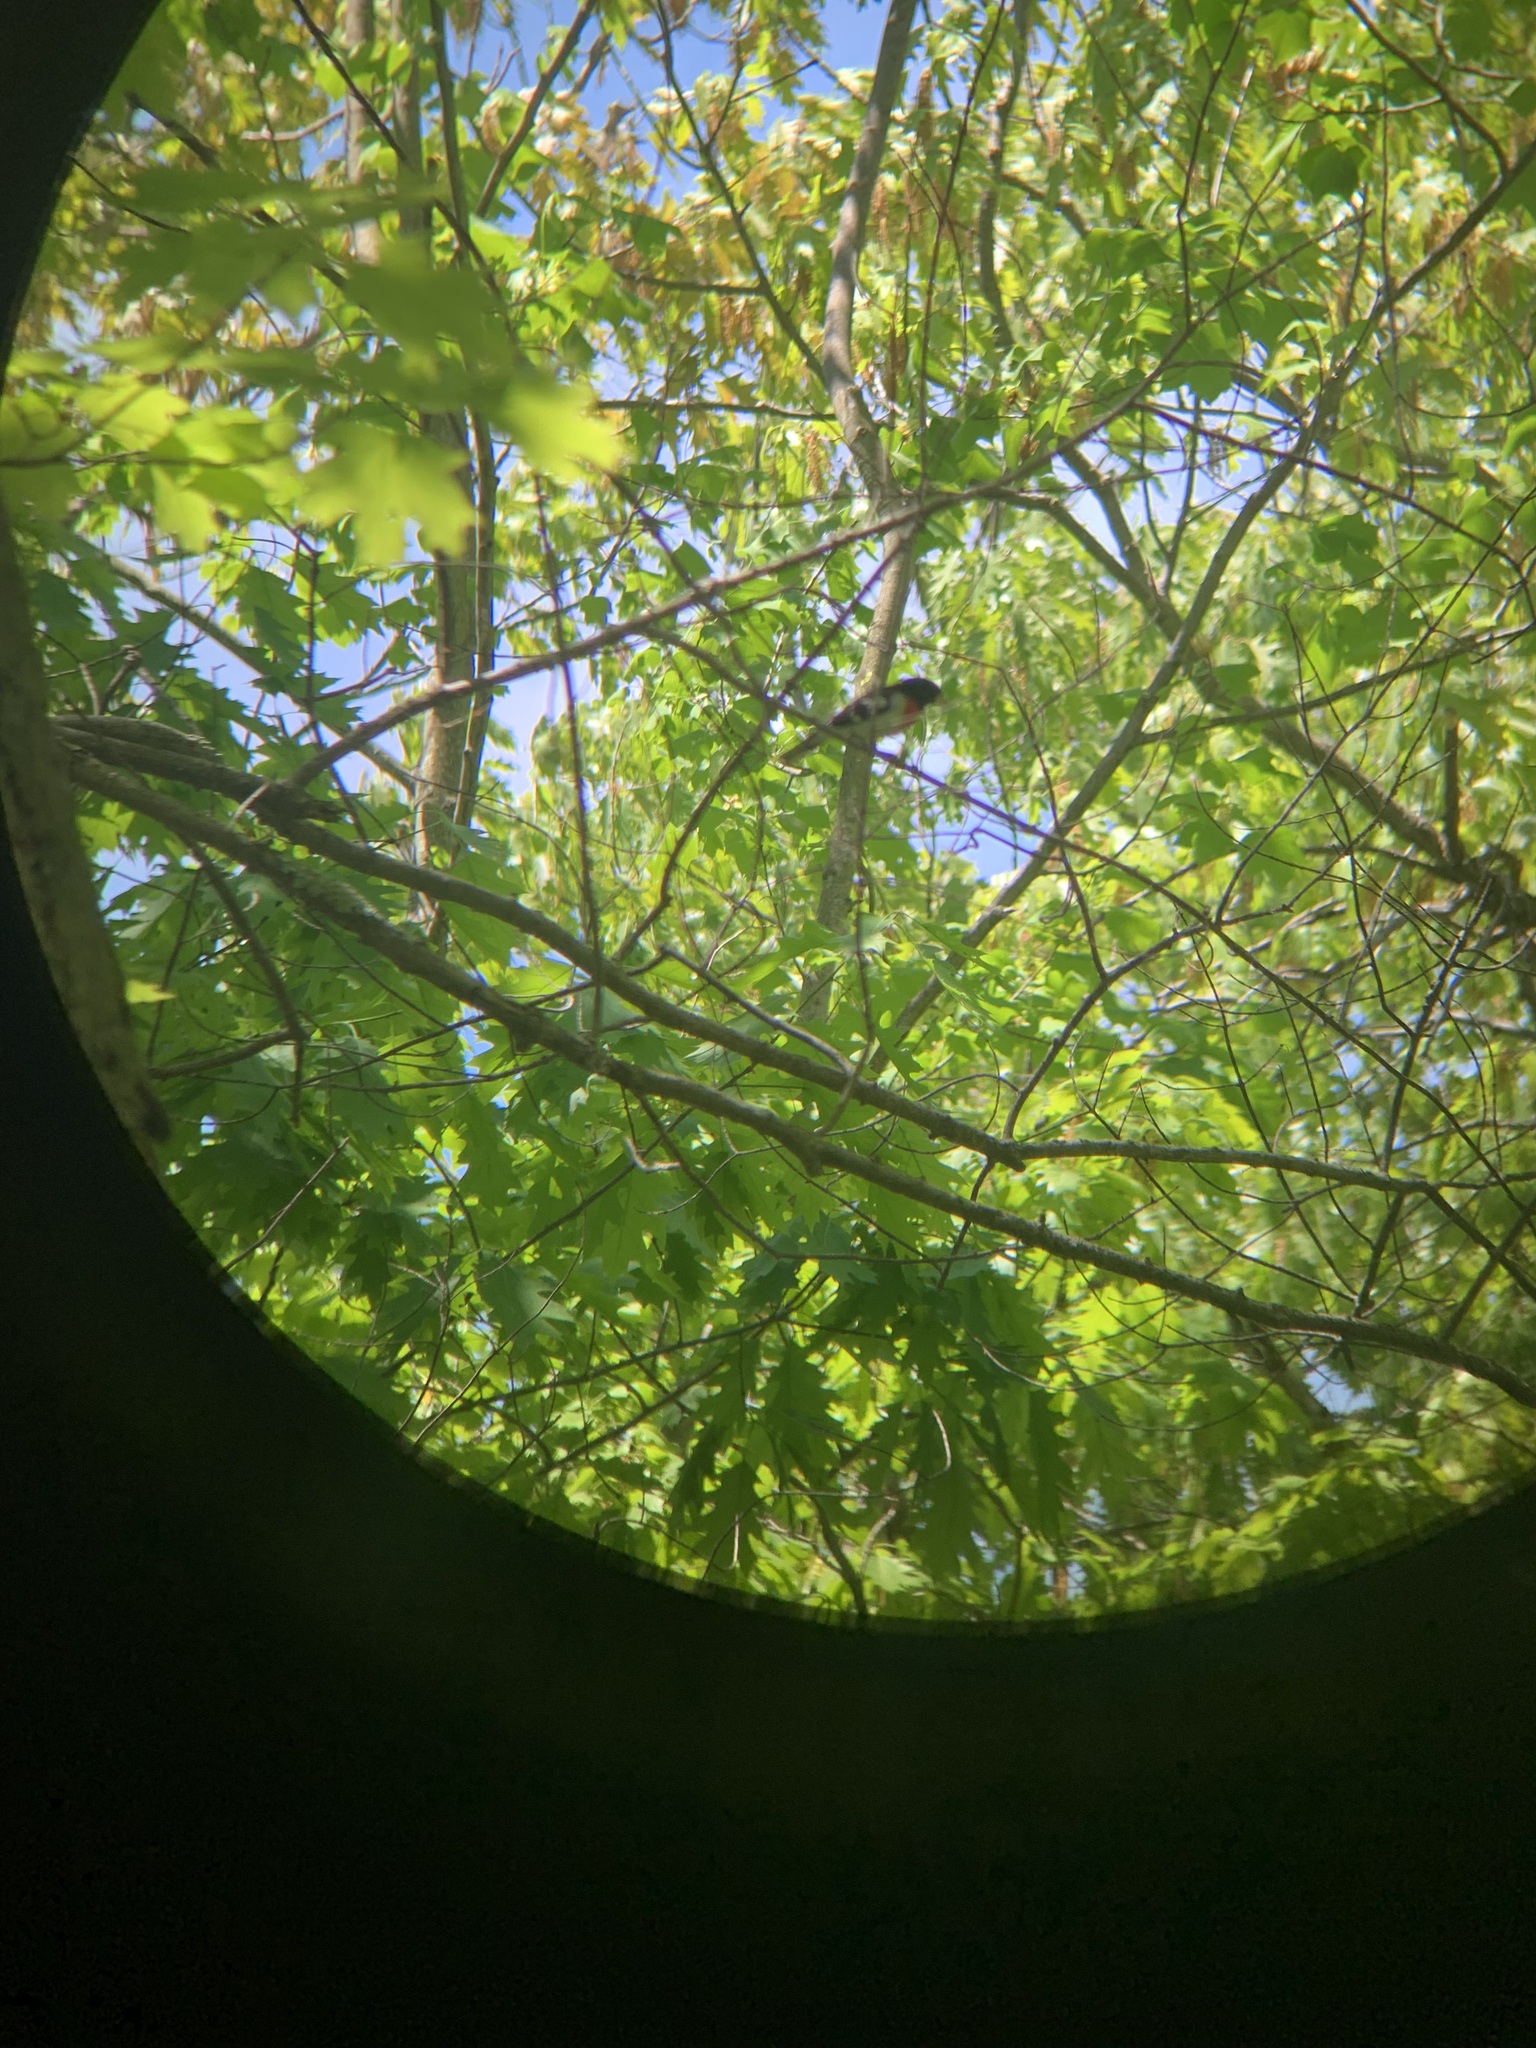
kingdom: Animalia
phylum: Chordata
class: Aves
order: Passeriformes
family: Cardinalidae
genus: Pheucticus
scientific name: Pheucticus ludovicianus
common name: Rose-breasted grosbeak
